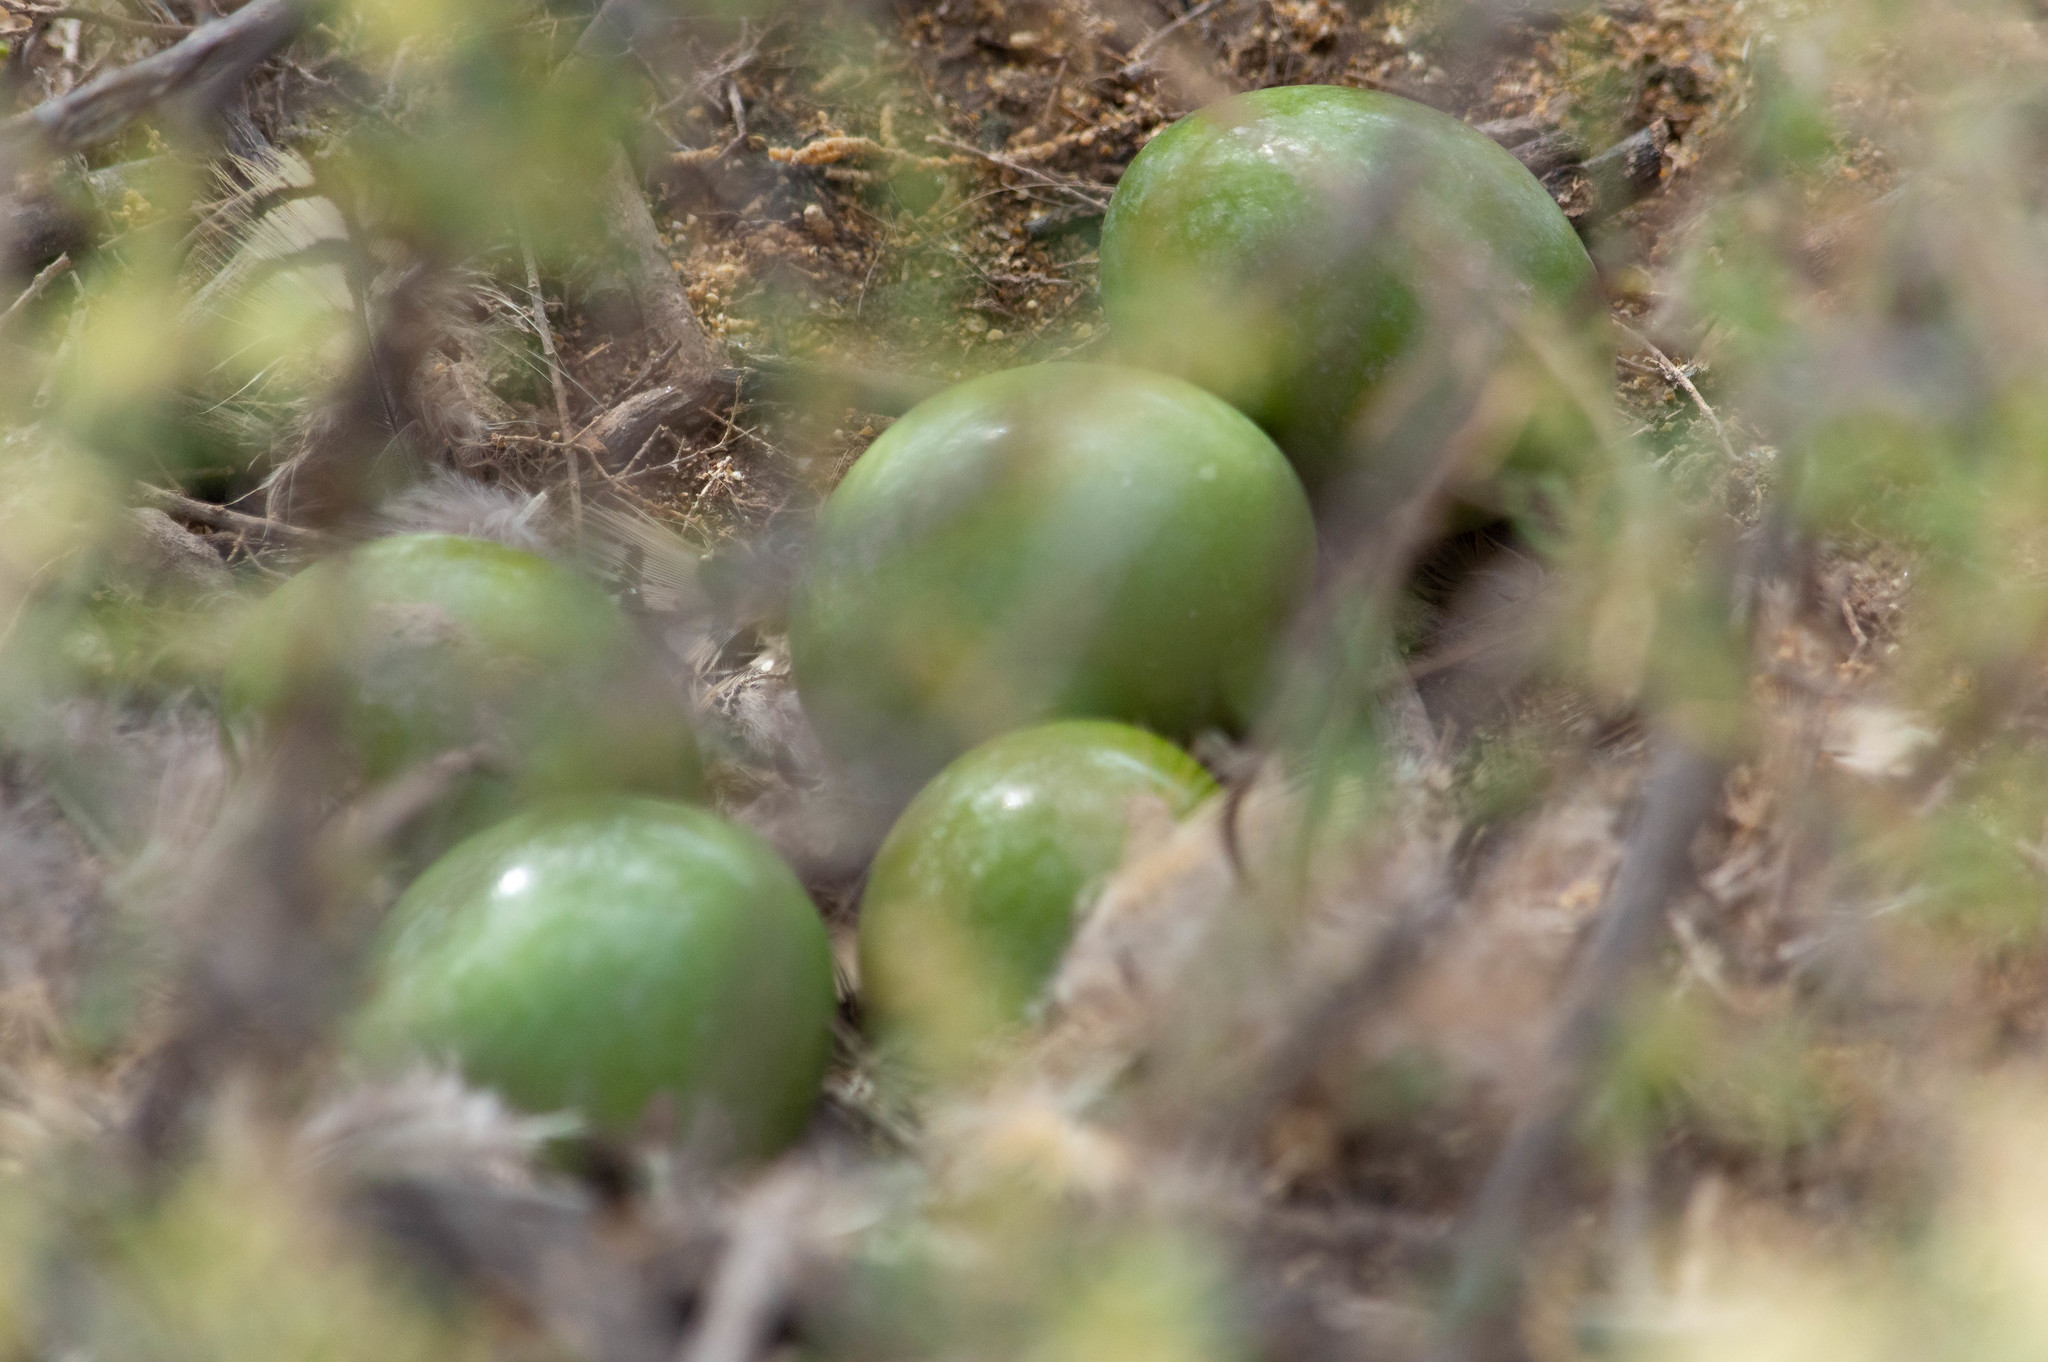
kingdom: Animalia
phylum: Chordata
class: Aves
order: Tinamiformes
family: Tinamidae
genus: Eudromia
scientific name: Eudromia elegans
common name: Elegant crested tinamou
